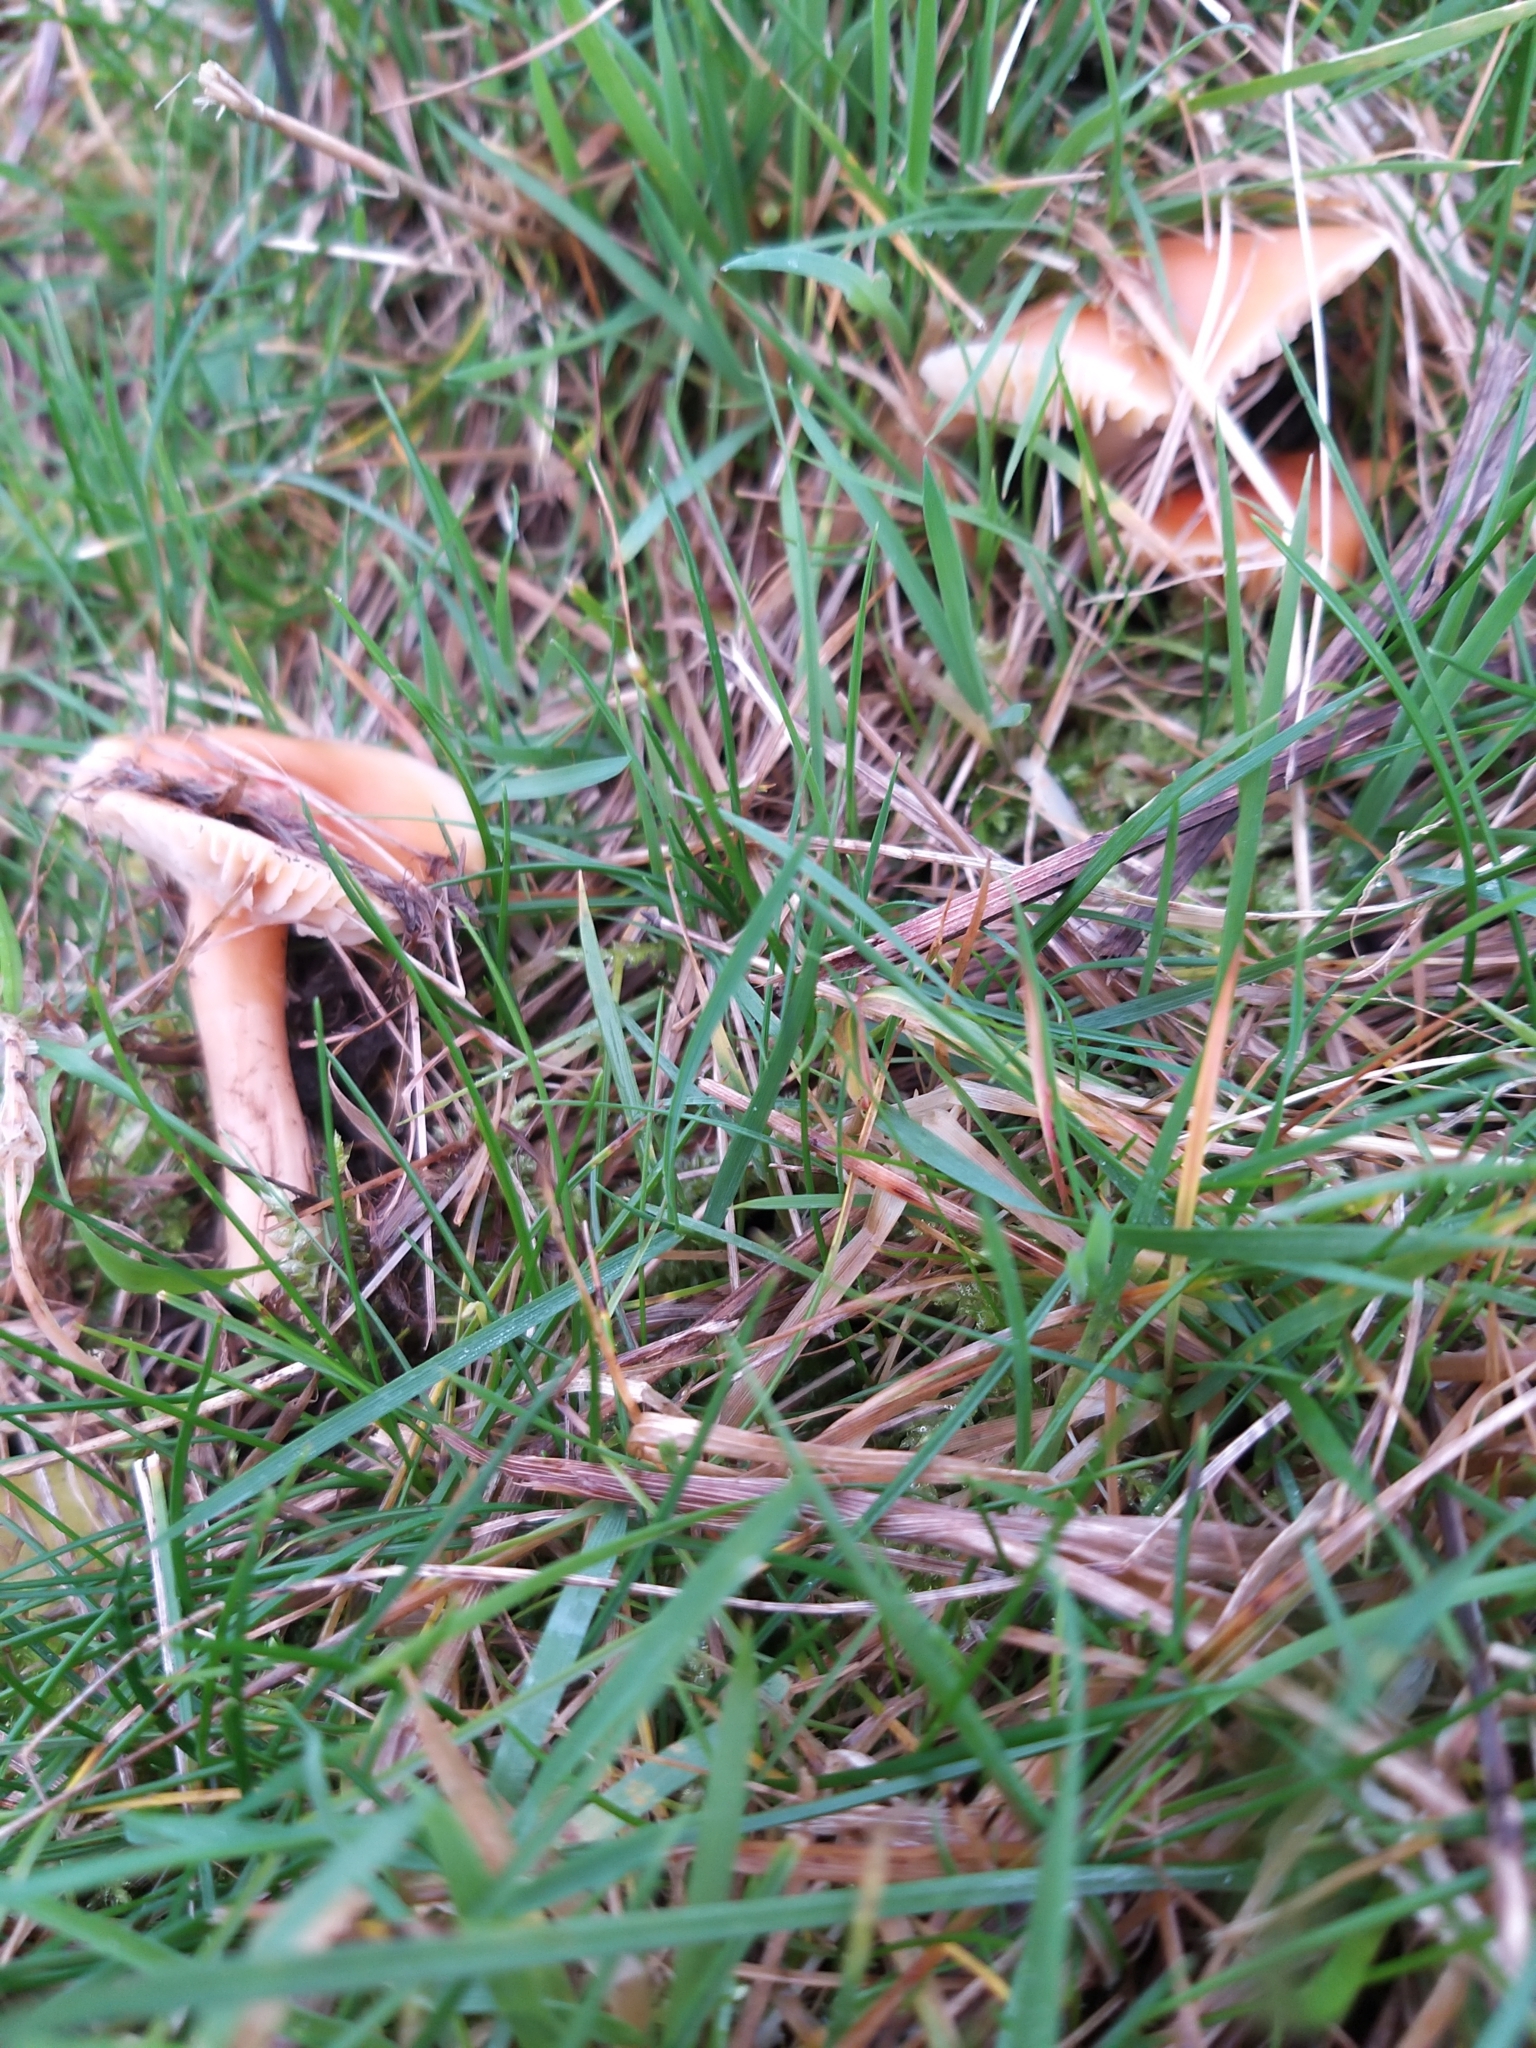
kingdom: Fungi
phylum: Basidiomycota
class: Agaricomycetes
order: Agaricales
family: Hygrophoraceae
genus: Cuphophyllus
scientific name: Cuphophyllus pratensis
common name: Meadow waxcap
